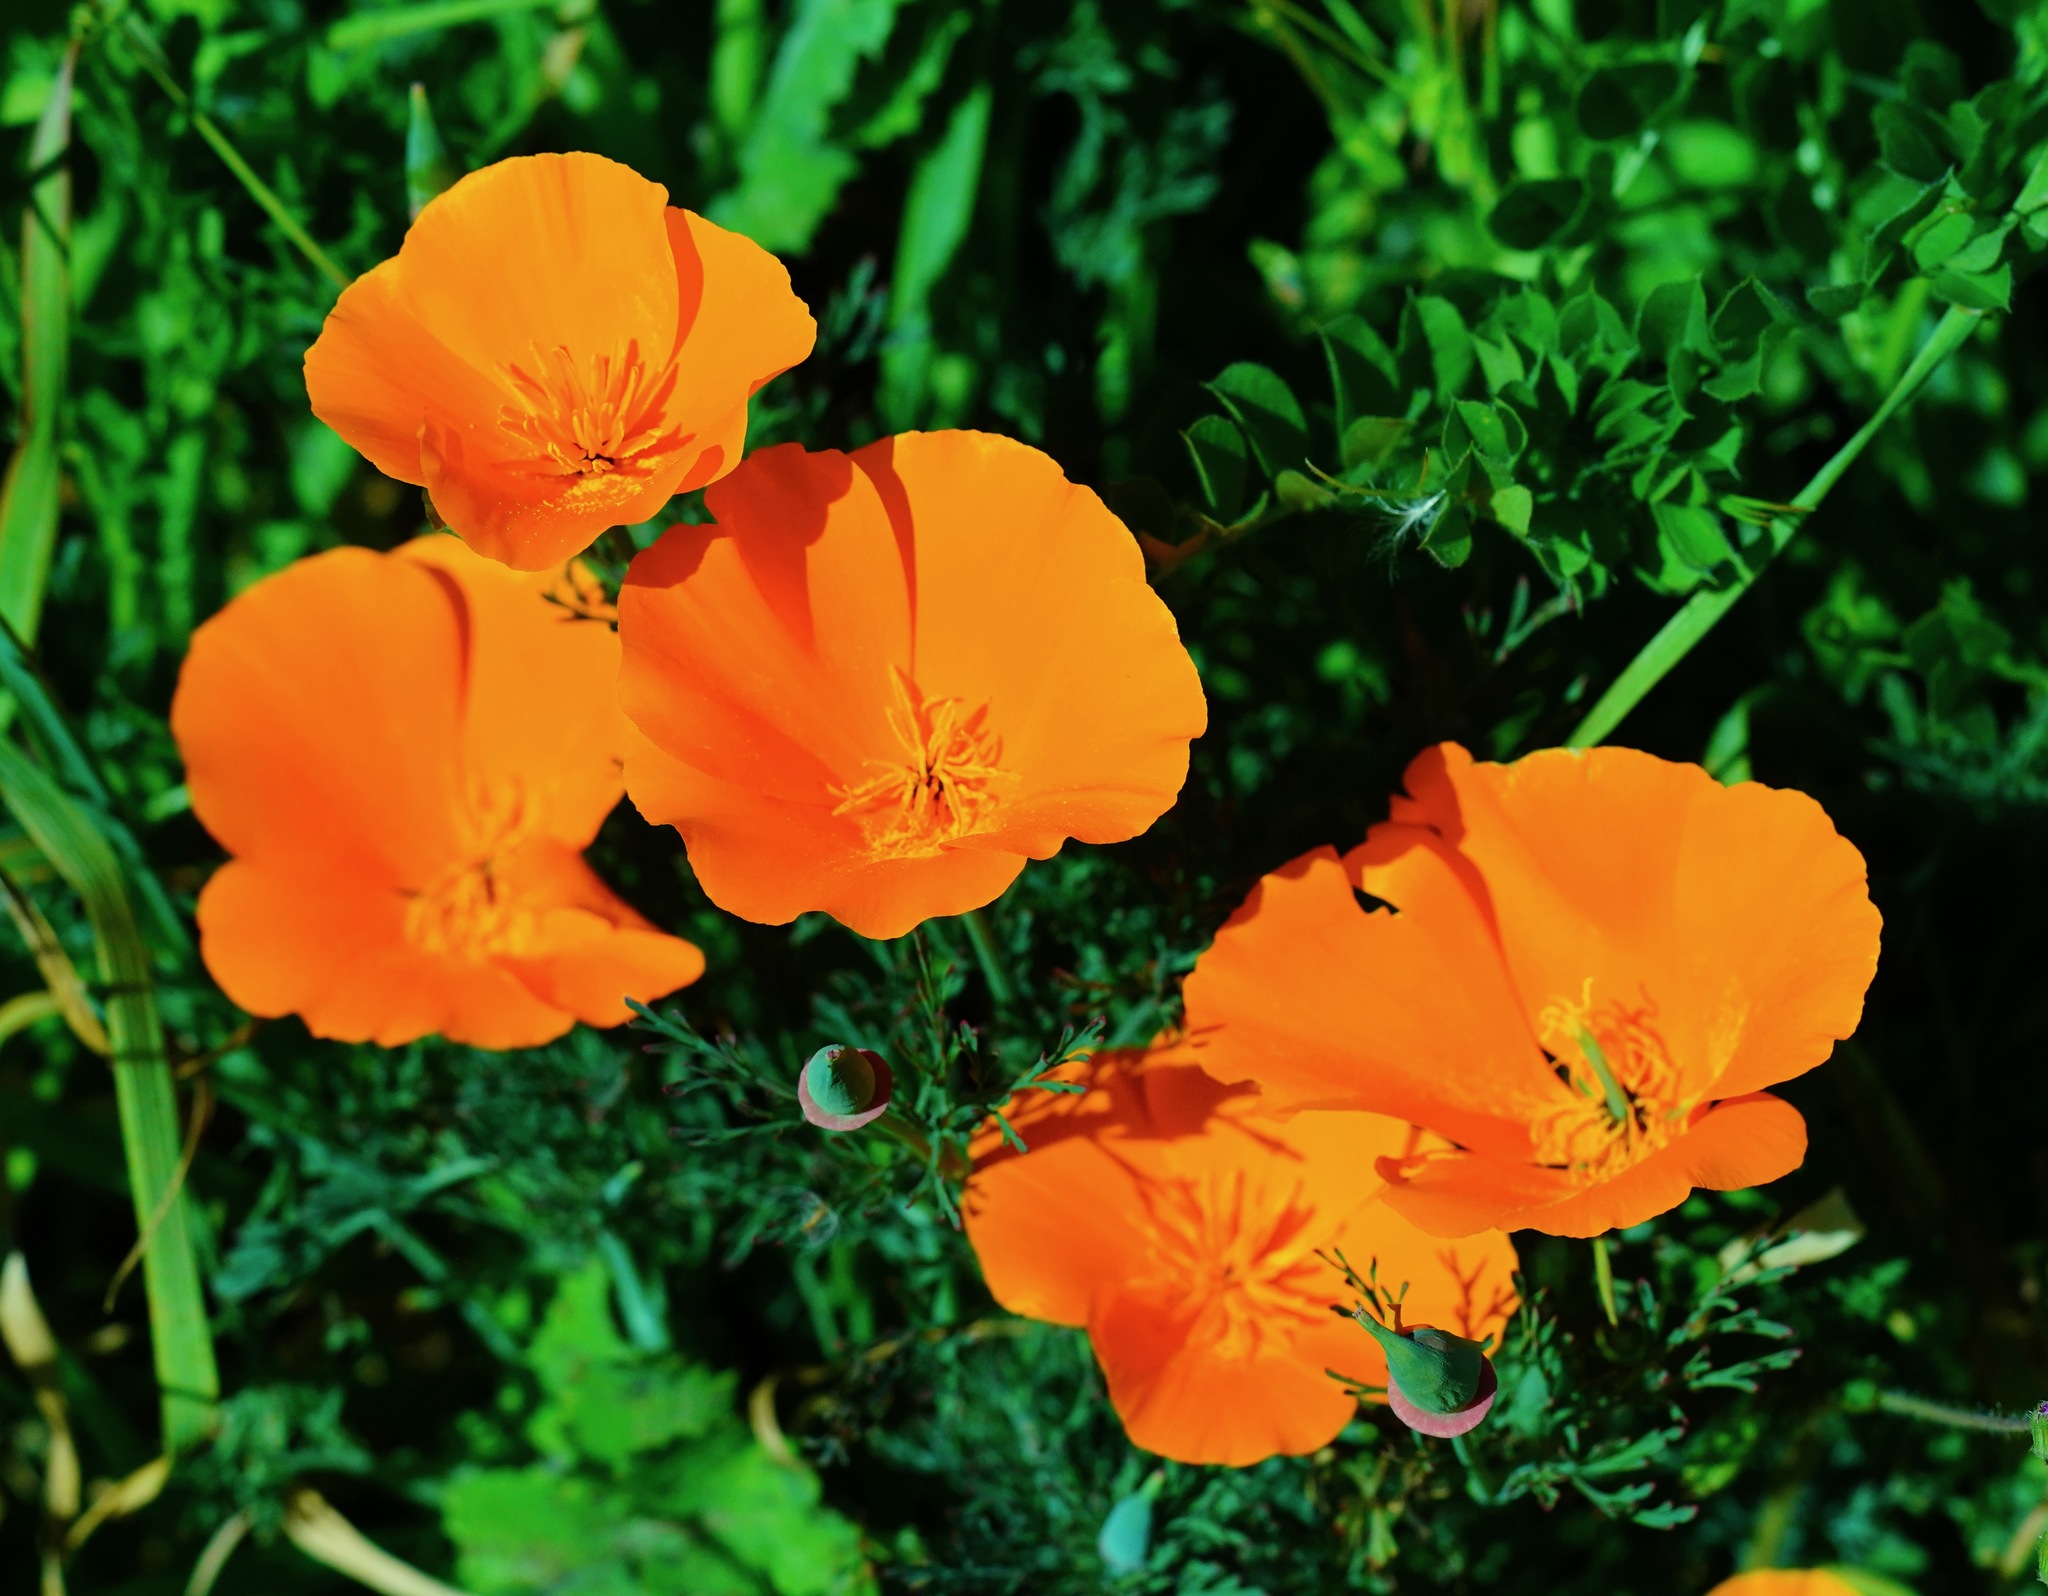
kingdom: Plantae
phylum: Tracheophyta
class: Magnoliopsida
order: Ranunculales
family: Papaveraceae
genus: Eschscholzia
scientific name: Eschscholzia californica
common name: California poppy
